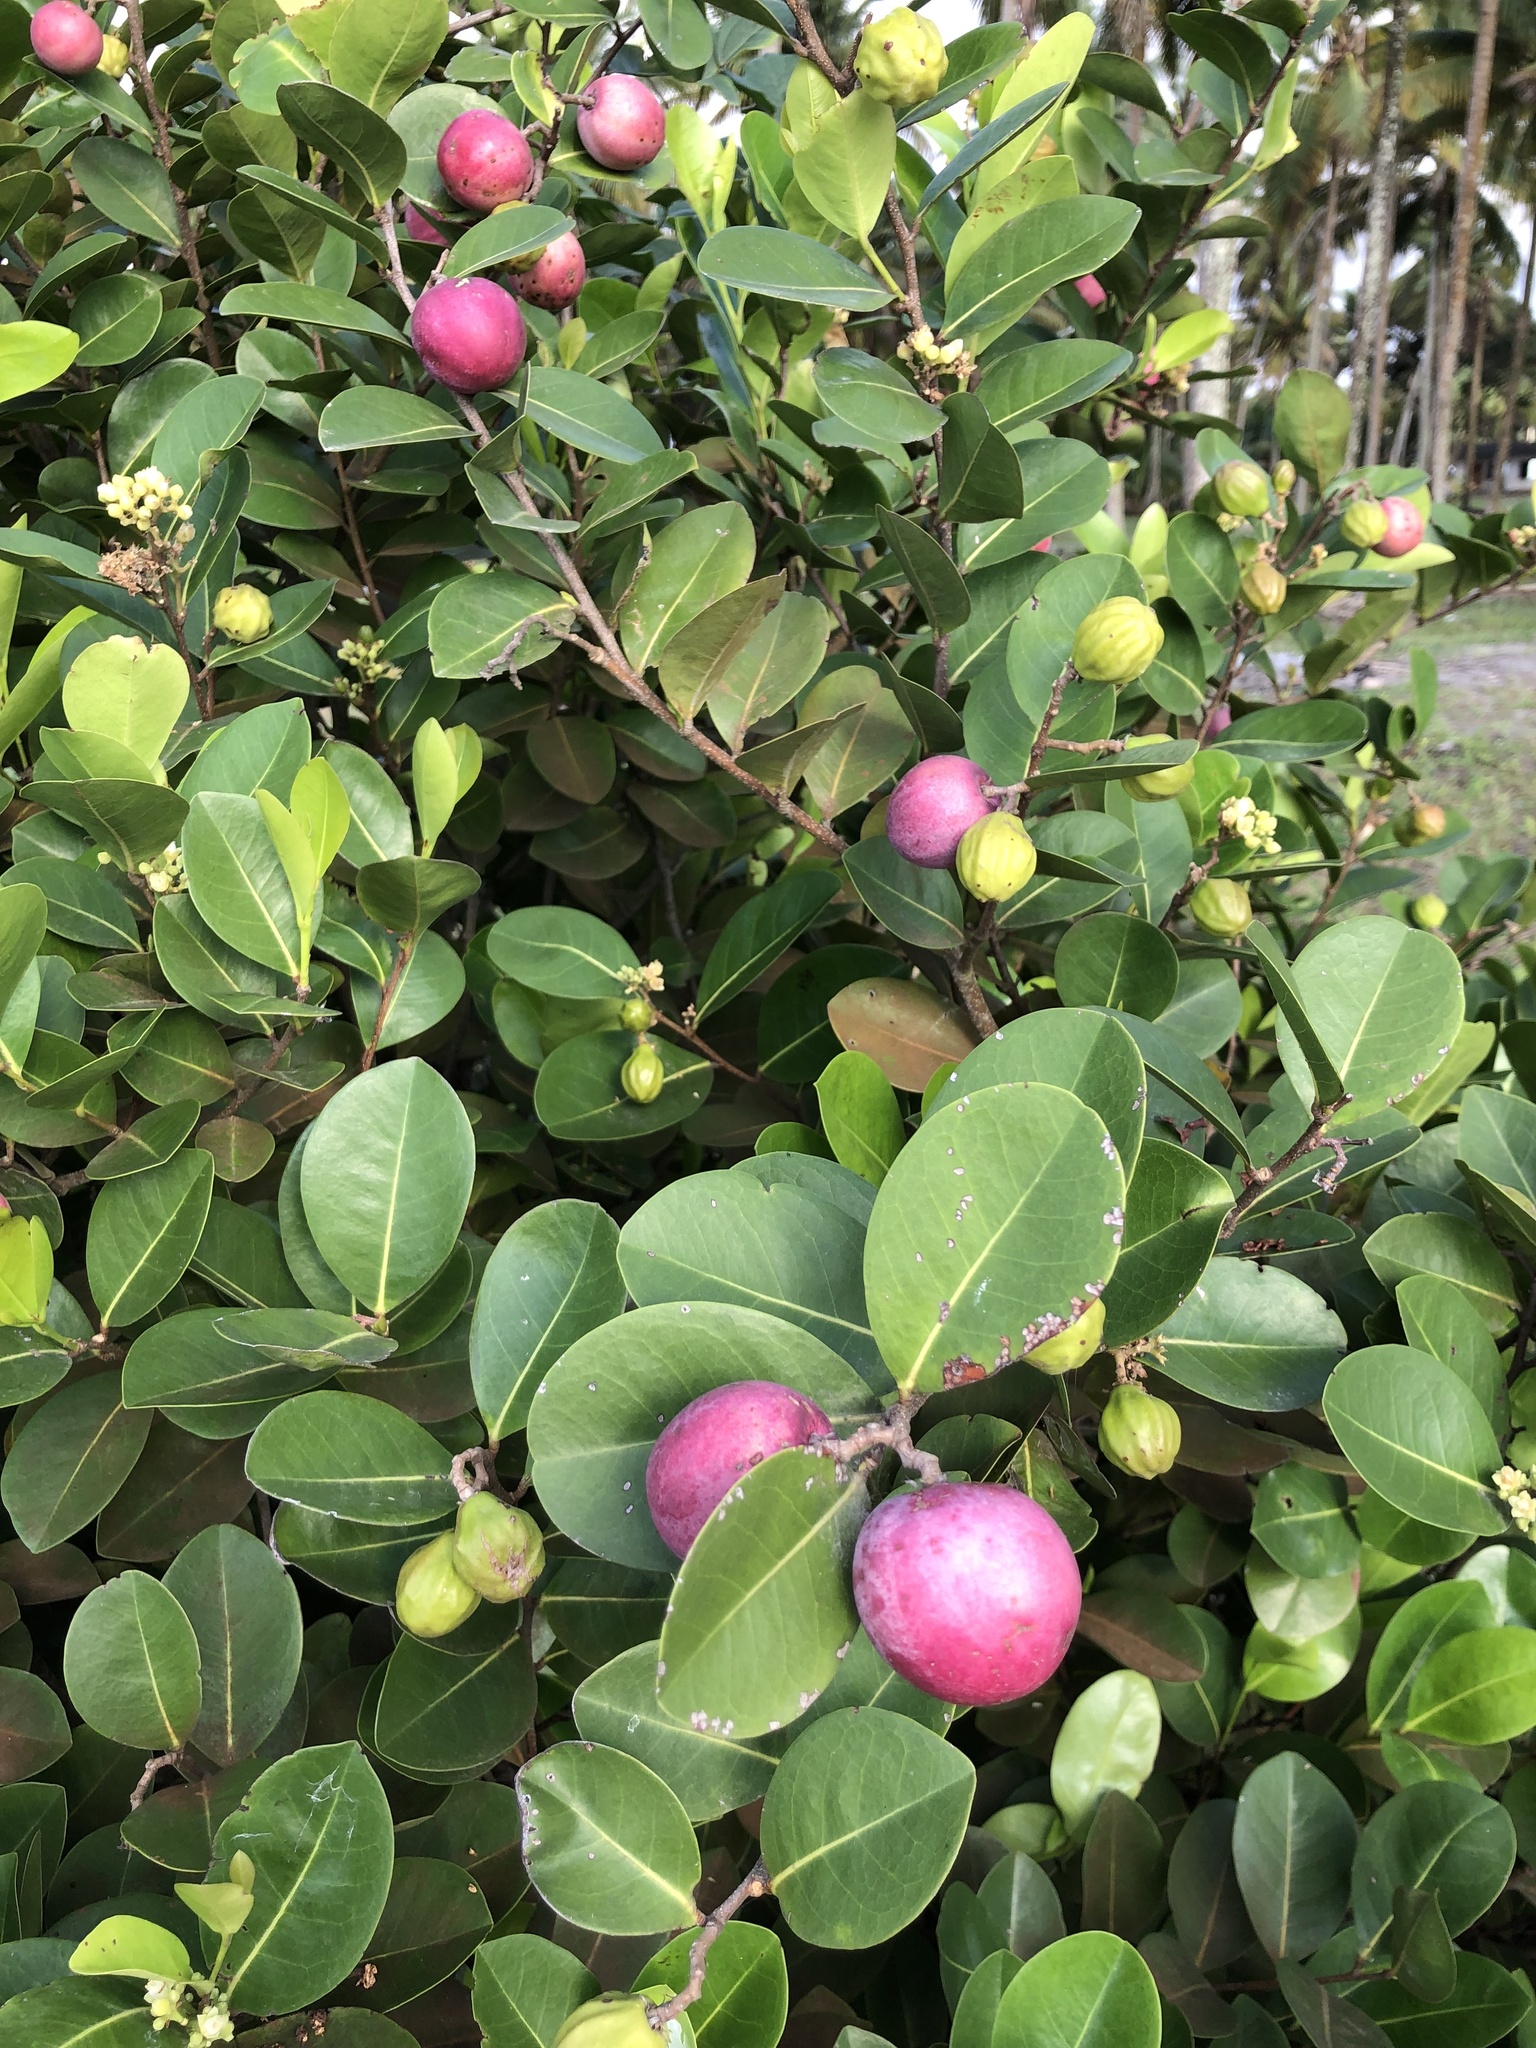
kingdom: Plantae
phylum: Tracheophyta
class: Magnoliopsida
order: Malpighiales
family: Chrysobalanaceae
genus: Chrysobalanus
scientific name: Chrysobalanus icaco
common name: Coco plum
